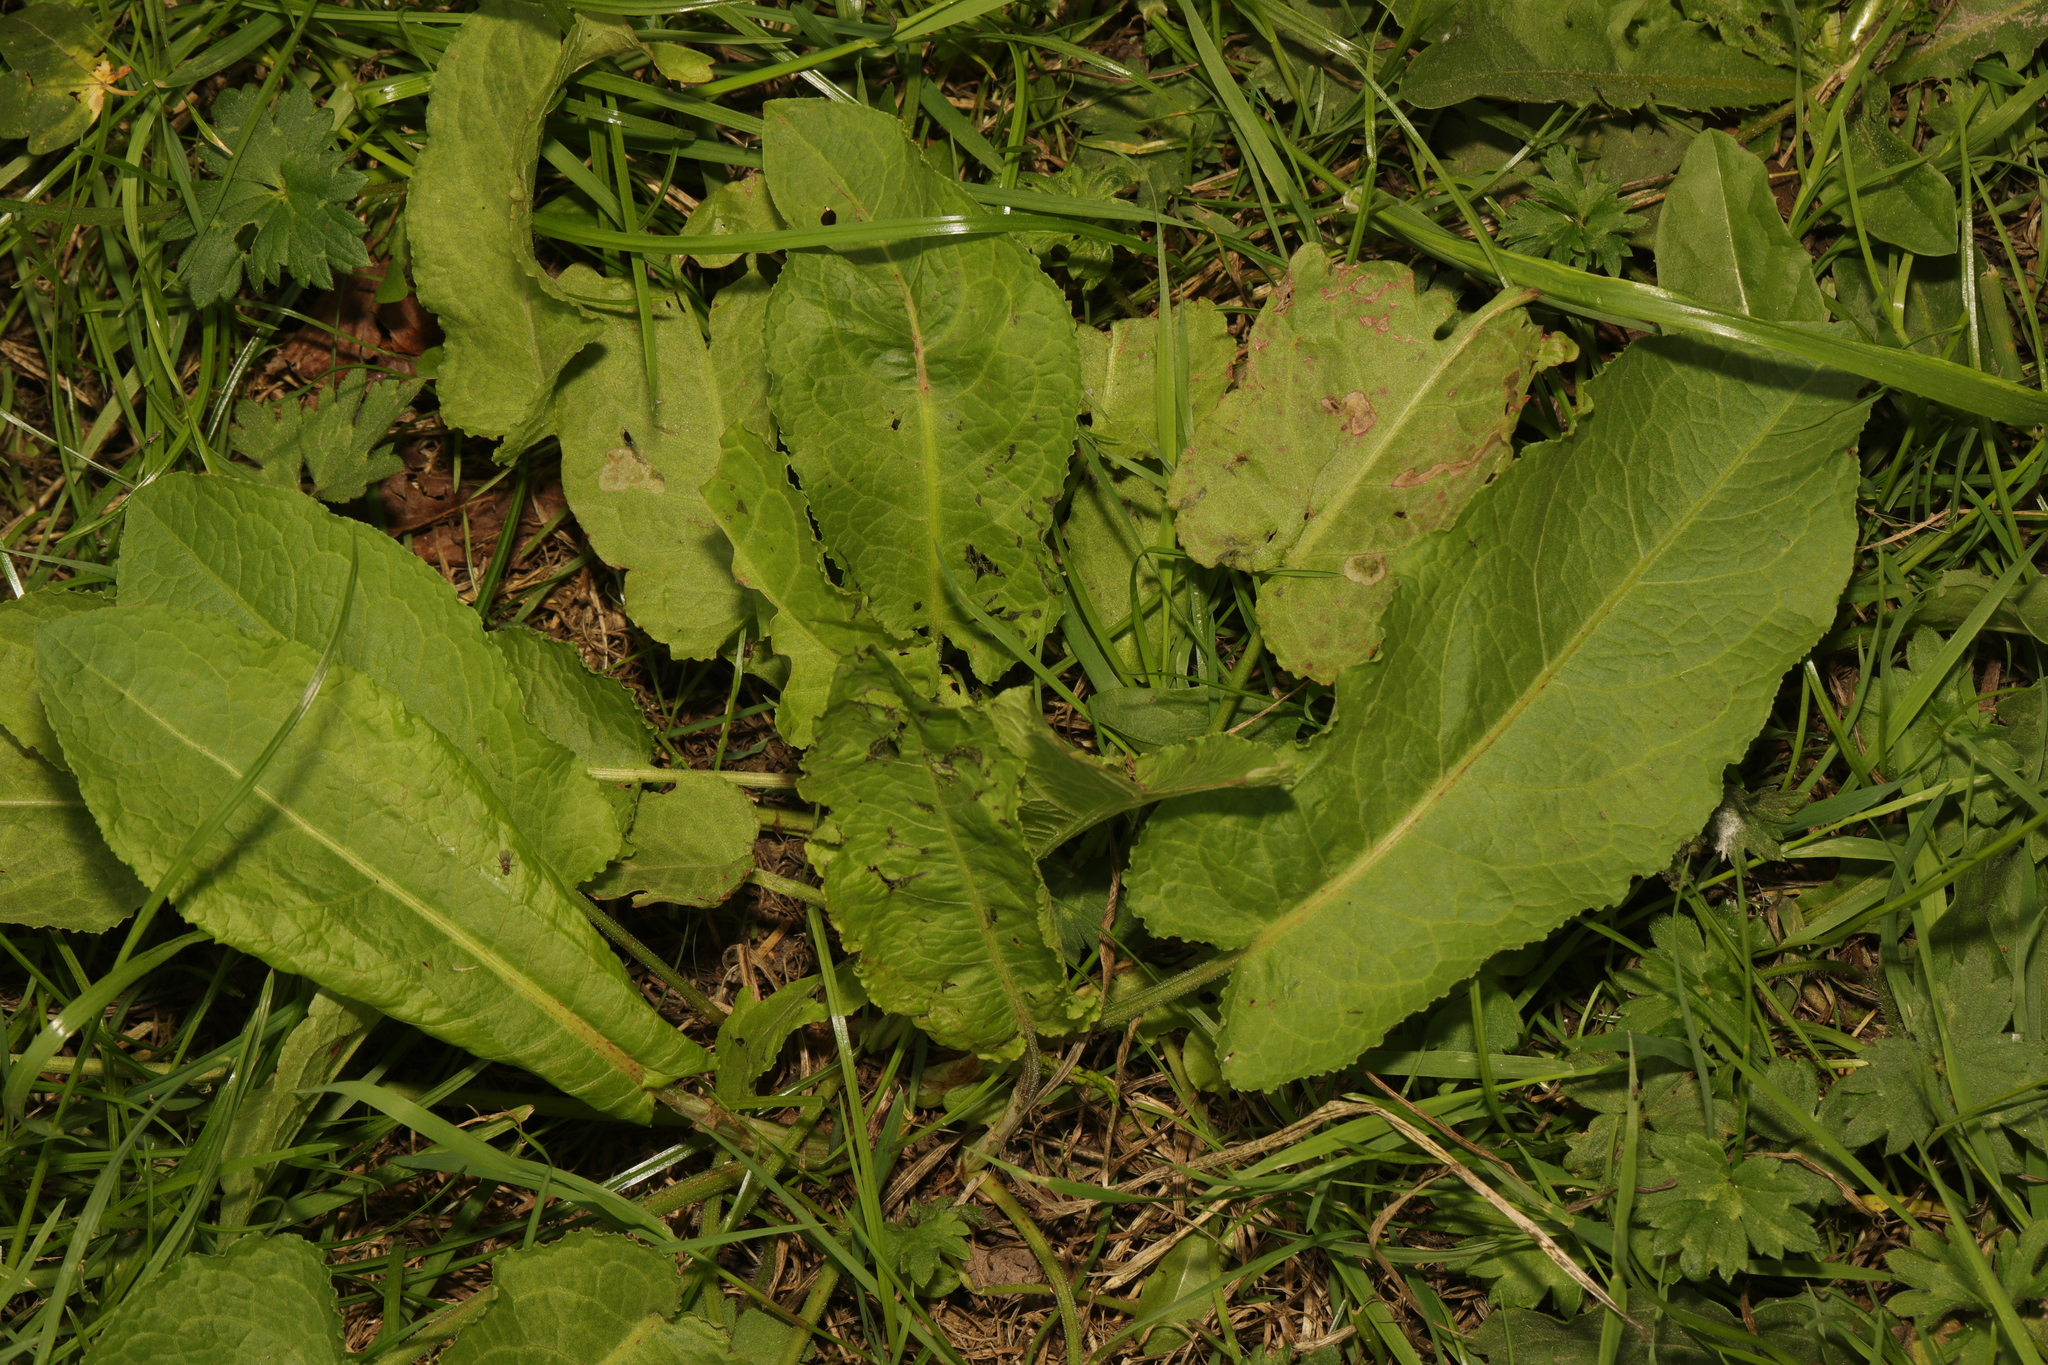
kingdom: Plantae
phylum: Tracheophyta
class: Magnoliopsida
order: Caryophyllales
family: Polygonaceae
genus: Rumex
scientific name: Rumex obtusifolius
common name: Bitter dock
